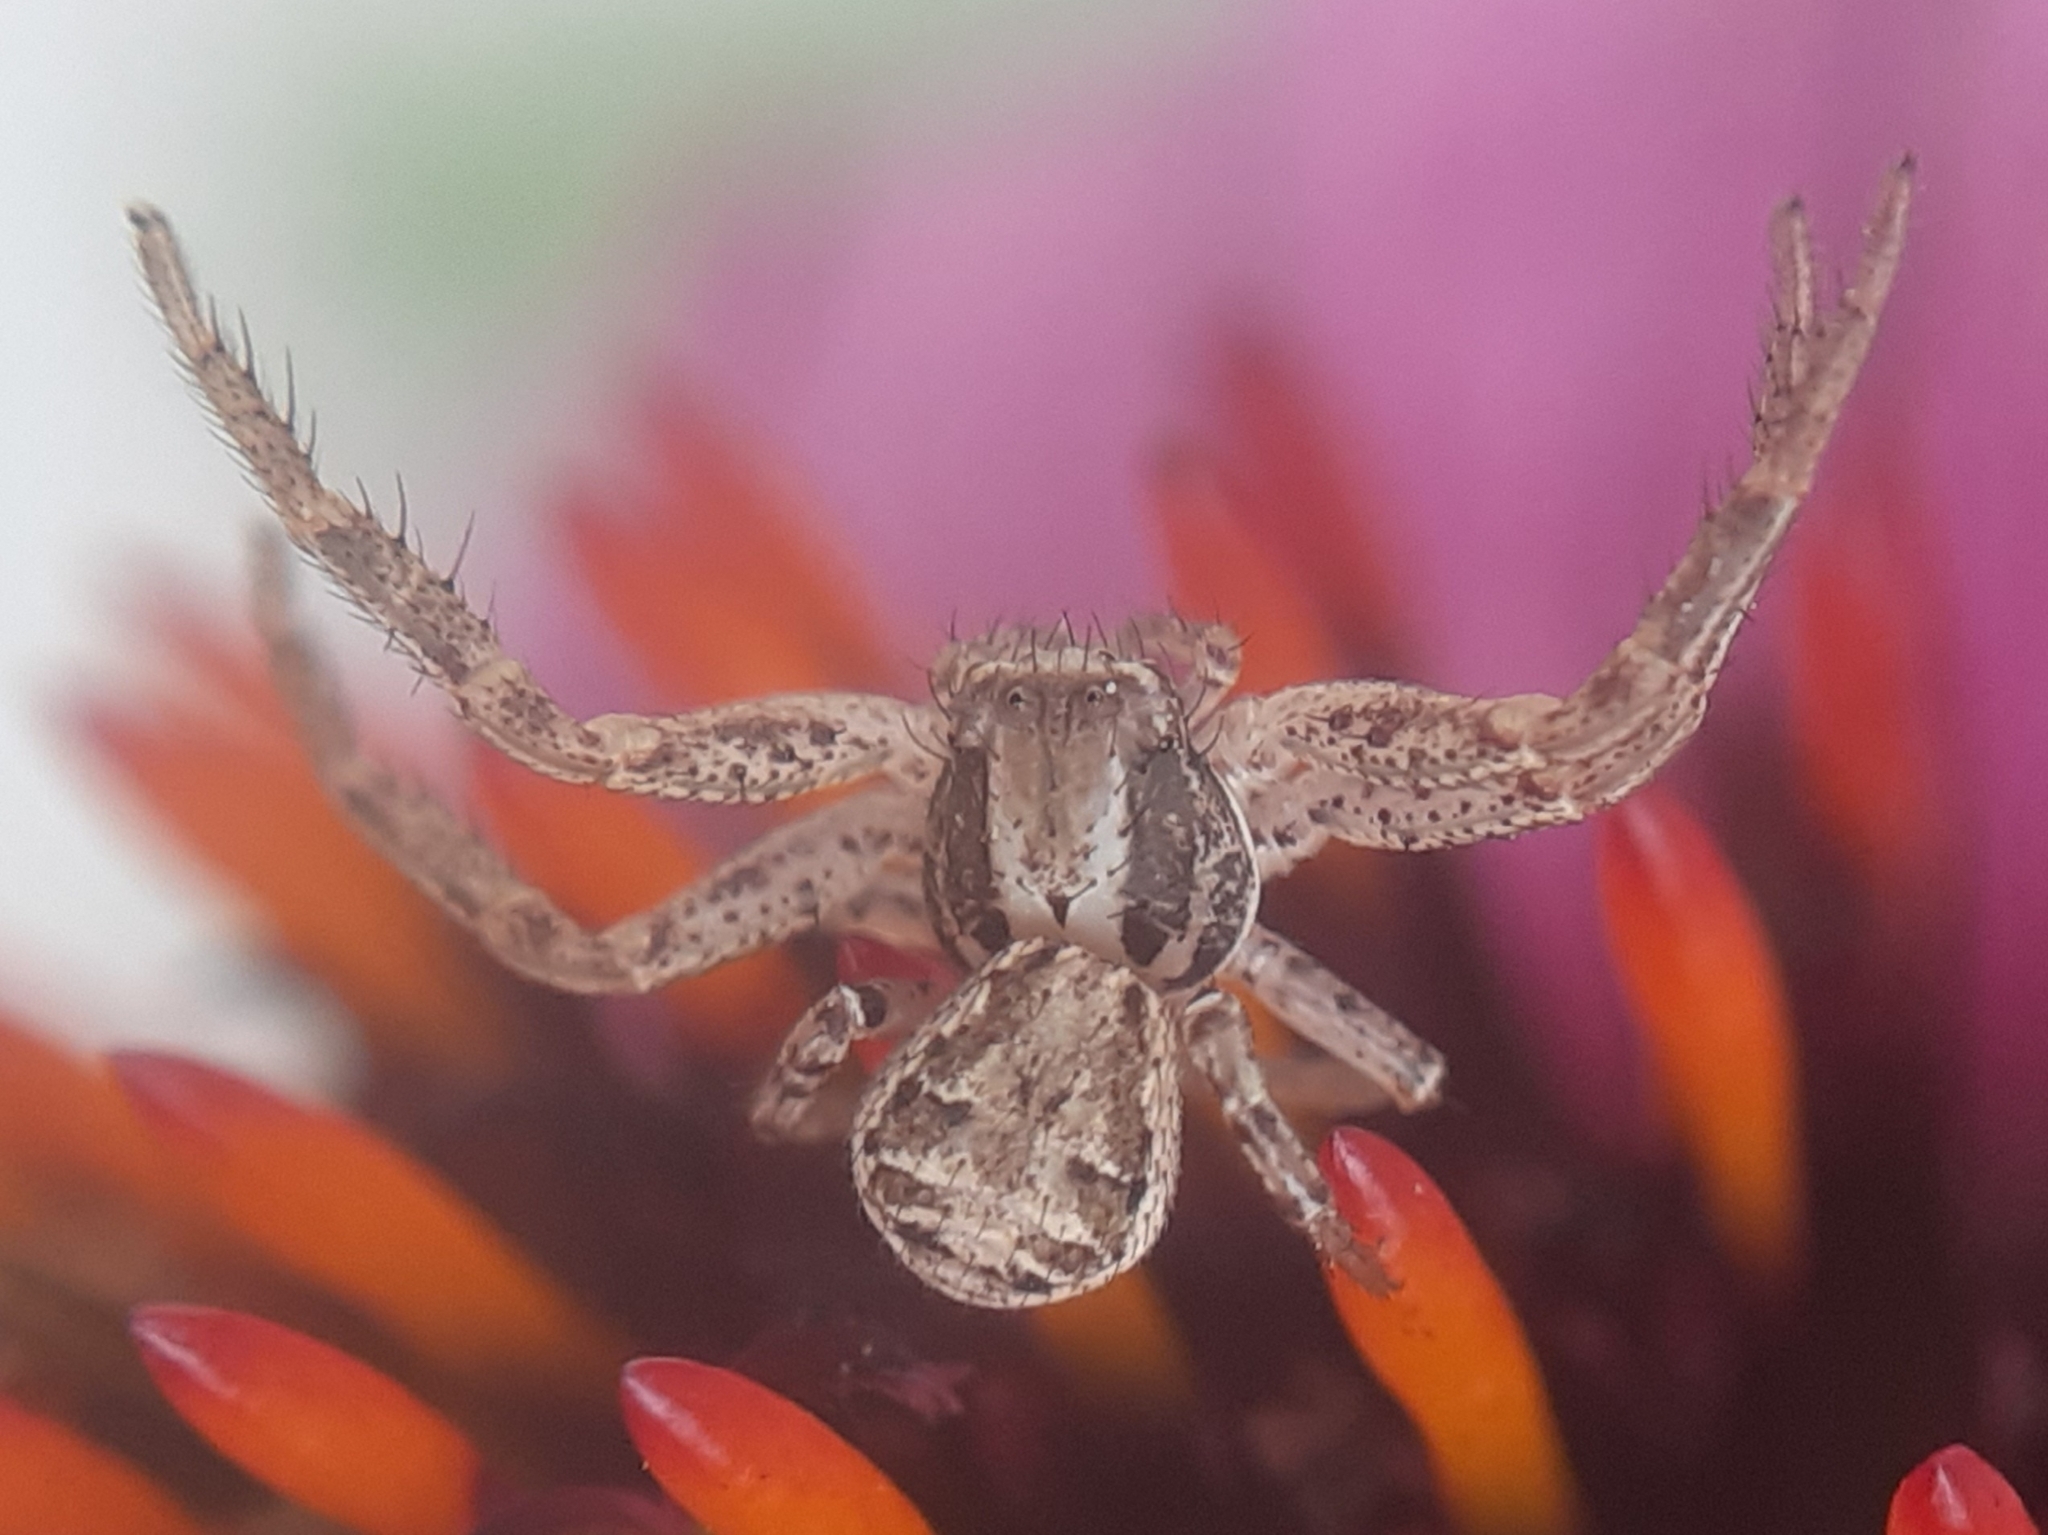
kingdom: Animalia
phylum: Arthropoda
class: Arachnida
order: Araneae
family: Thomisidae
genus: Xysticus
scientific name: Xysticus
